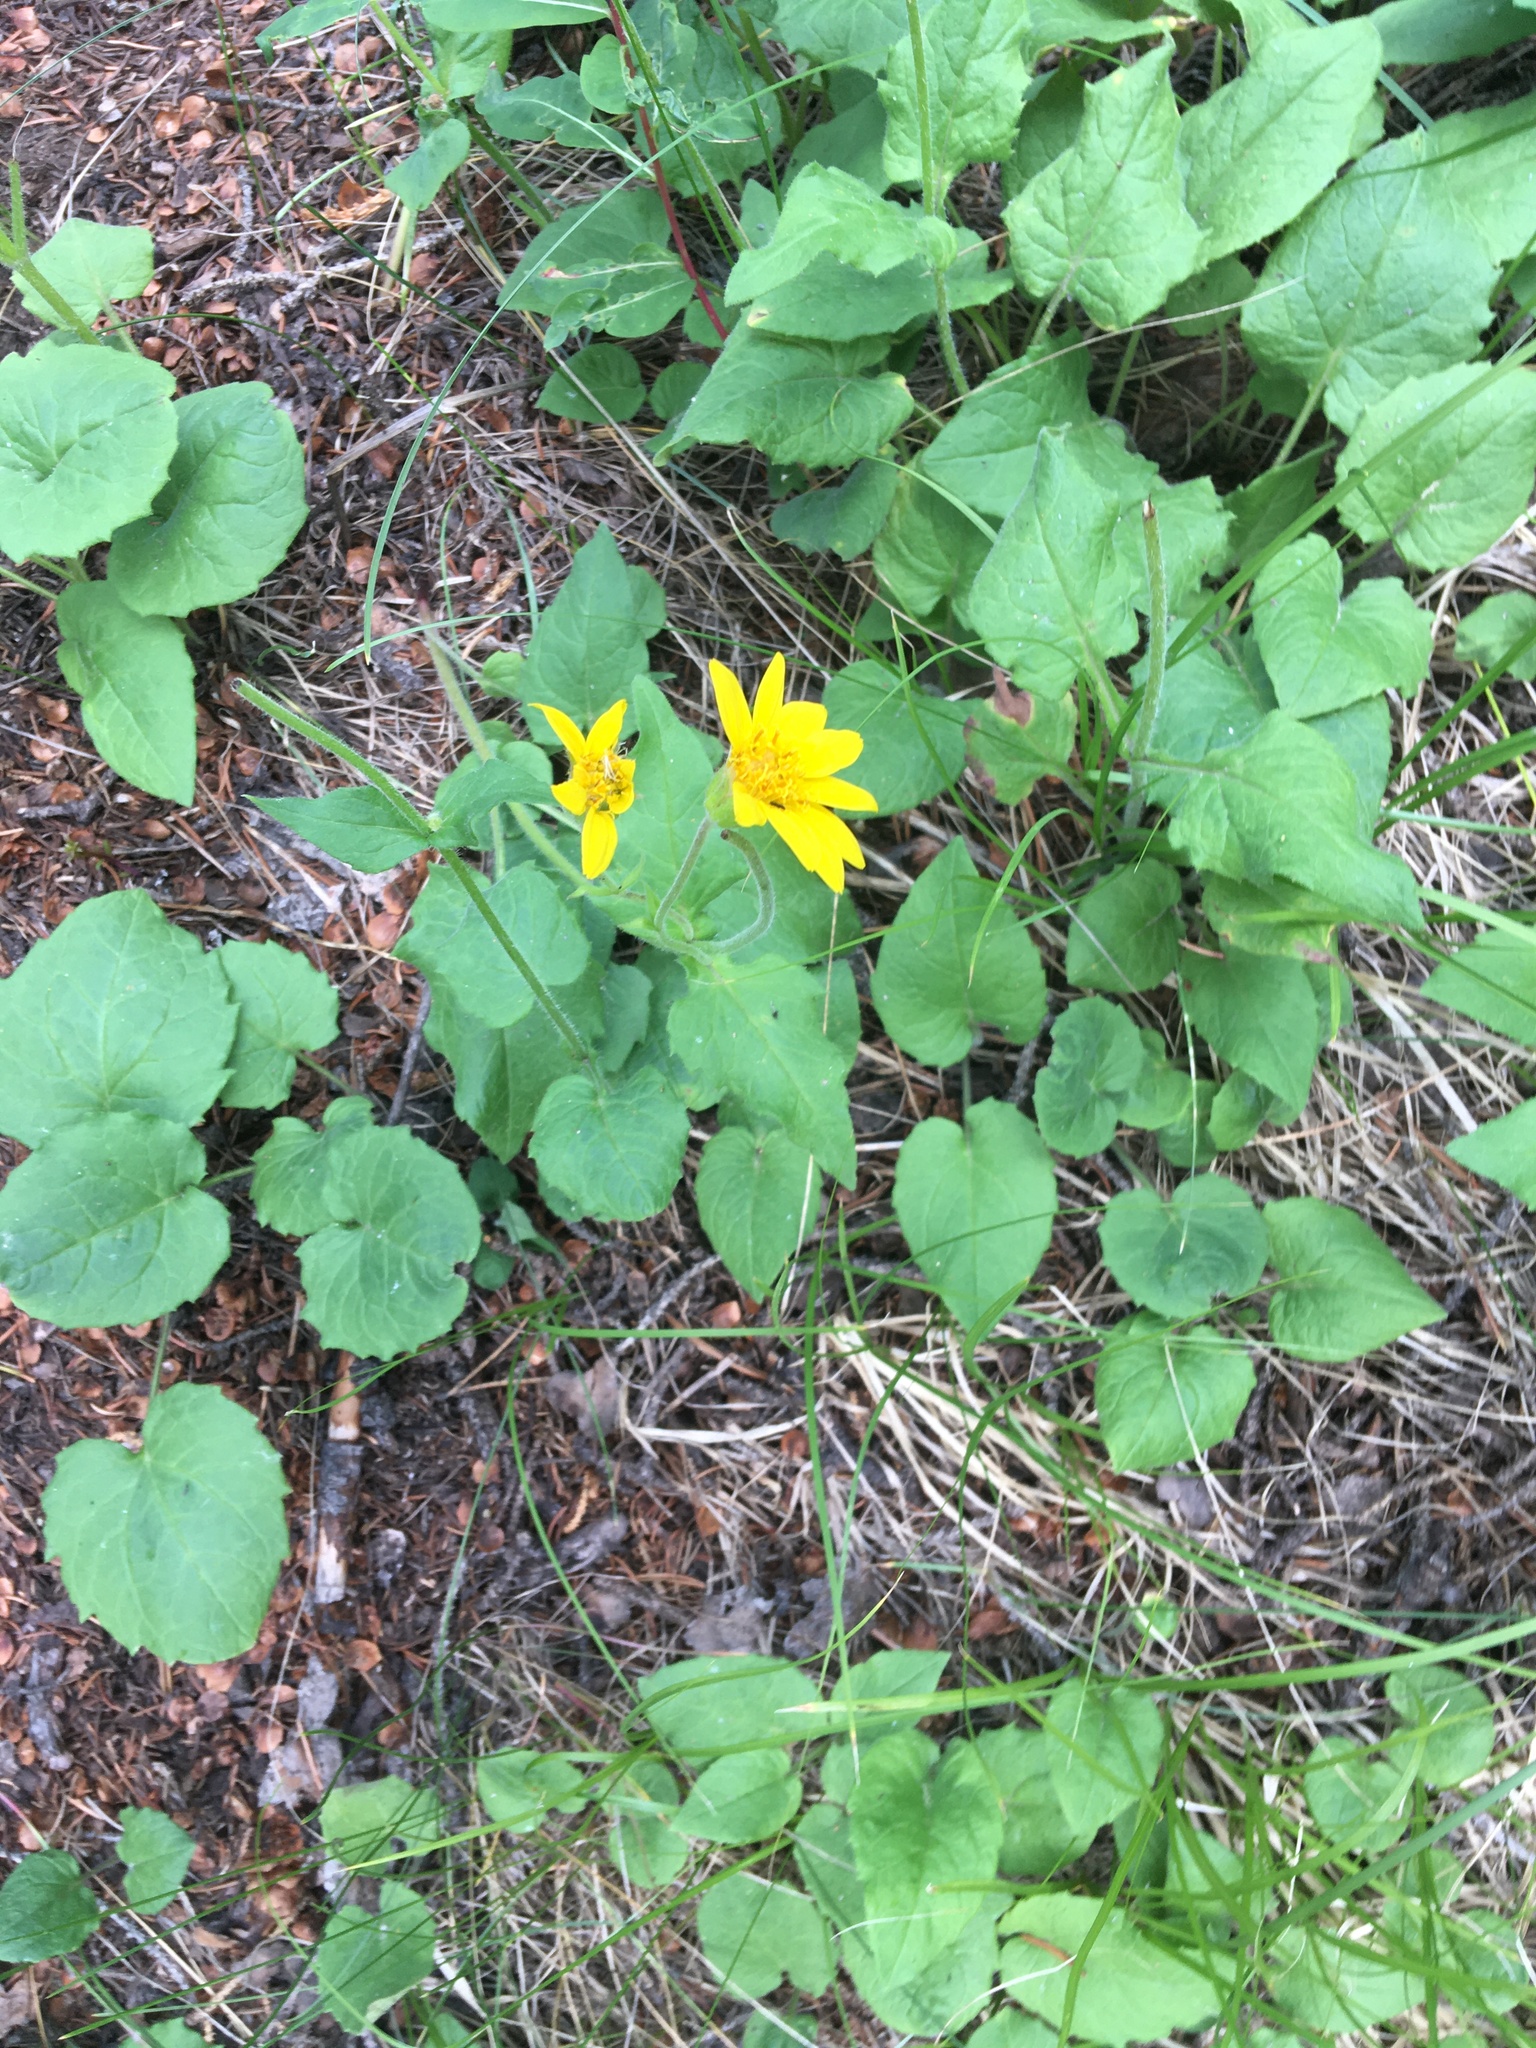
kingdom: Plantae
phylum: Tracheophyta
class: Magnoliopsida
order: Asterales
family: Asteraceae
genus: Arnica
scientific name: Arnica cordifolia
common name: Heart-leaf arnica
